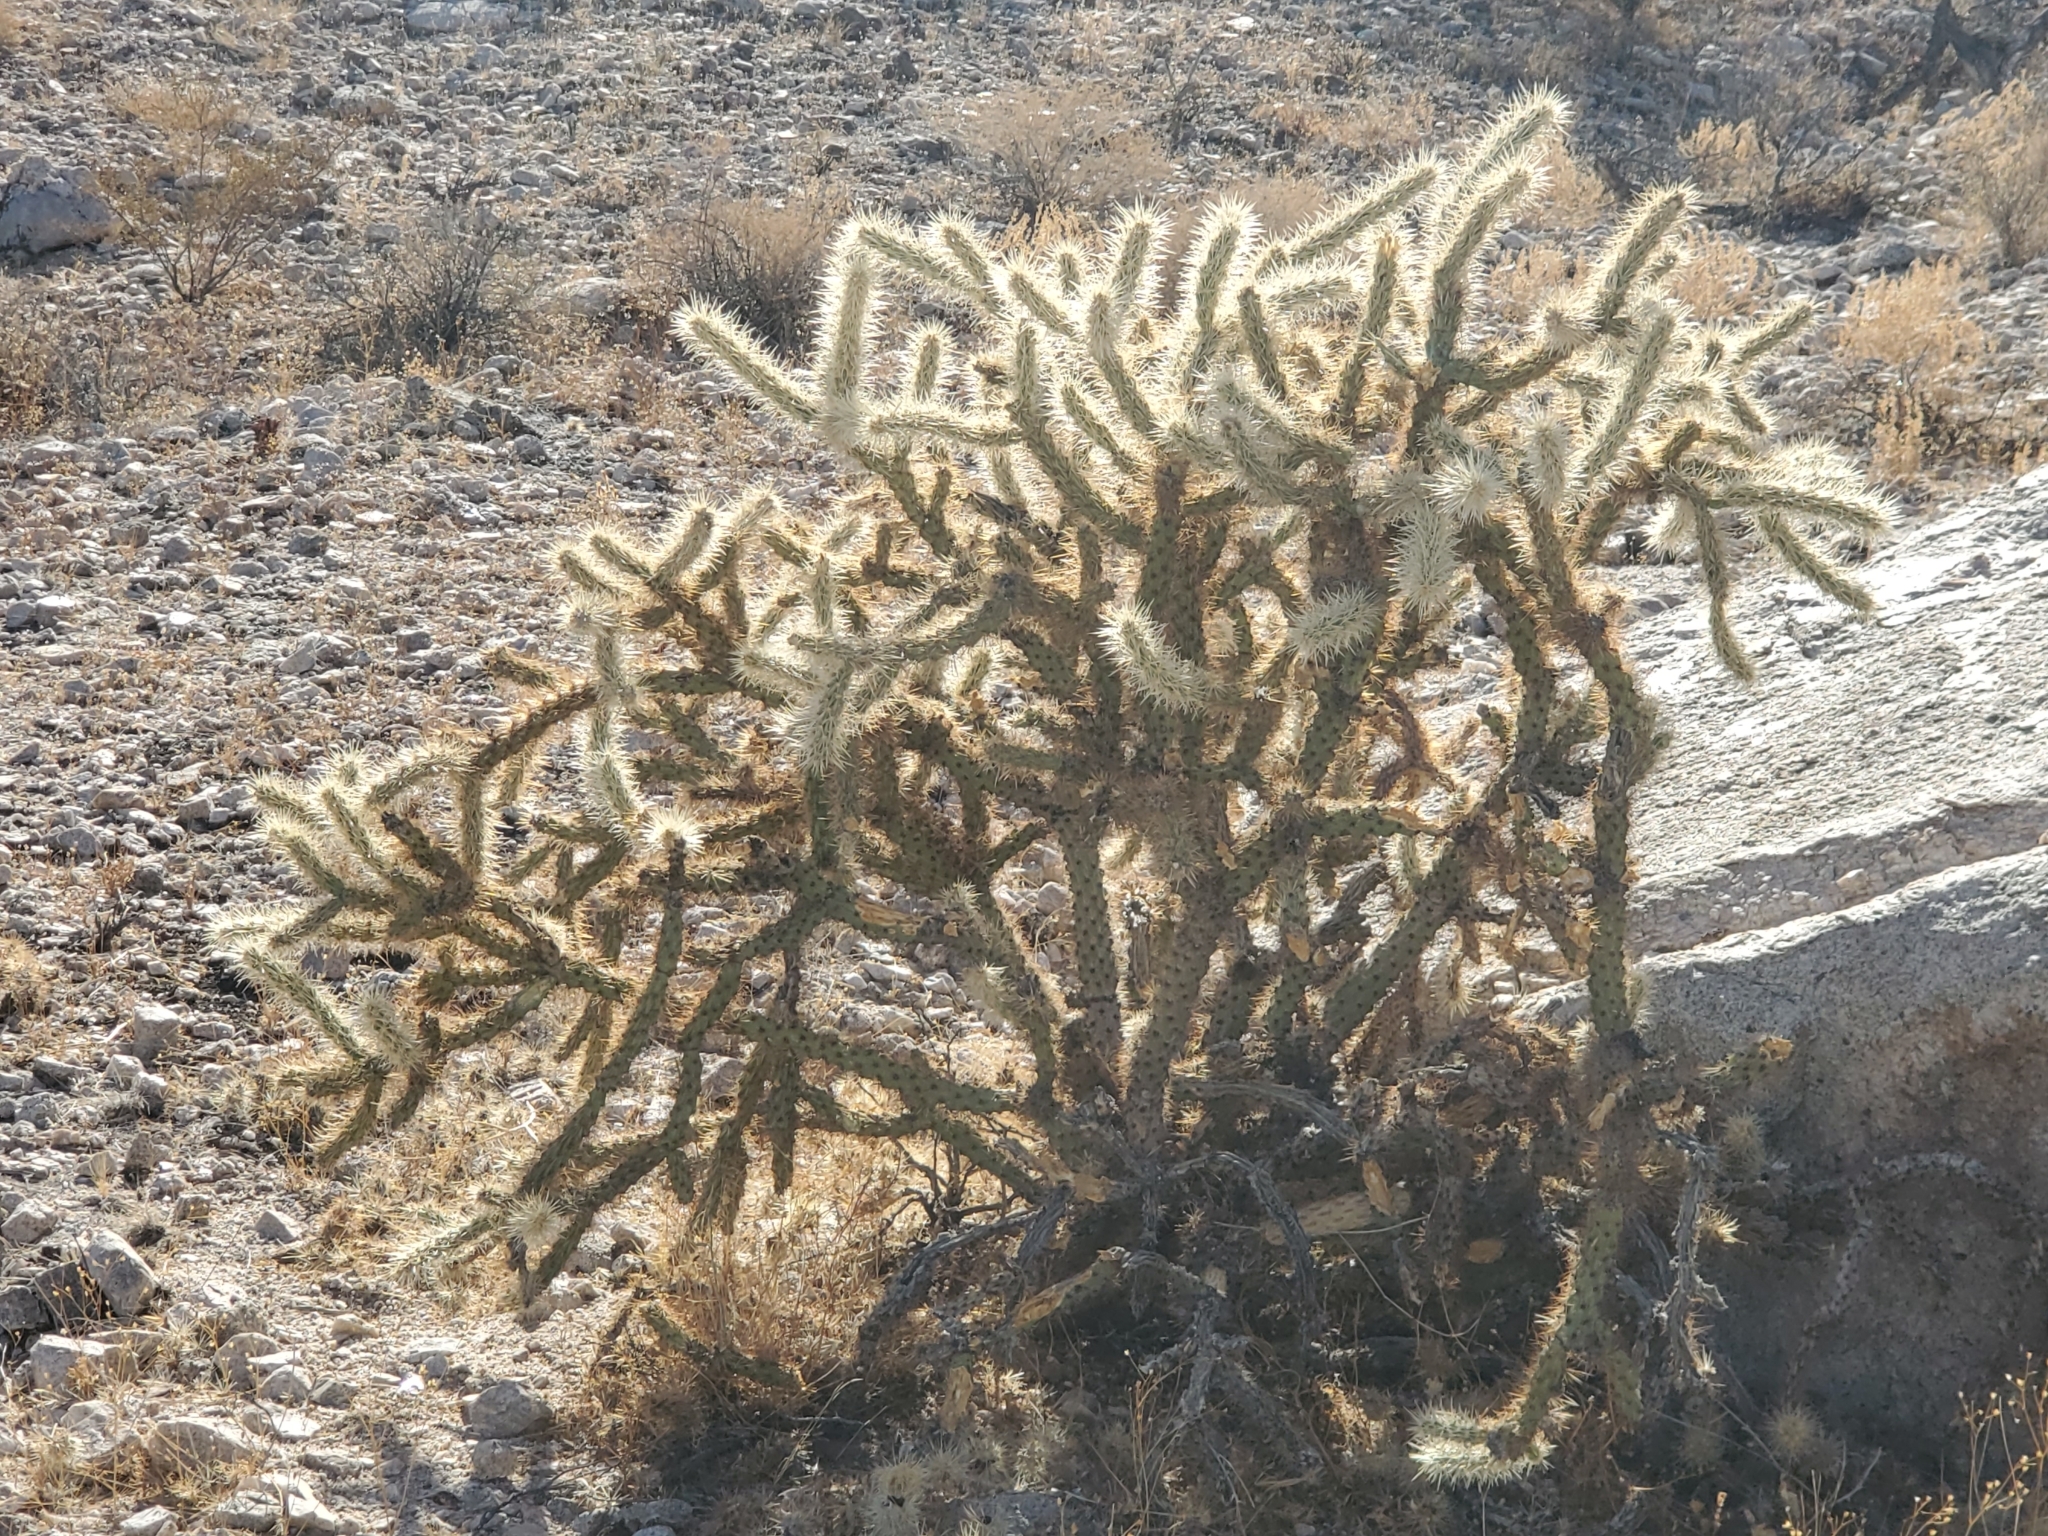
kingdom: Plantae
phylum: Tracheophyta
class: Magnoliopsida
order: Caryophyllales
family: Cactaceae
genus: Cylindropuntia
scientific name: Cylindropuntia acanthocarpa
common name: Buckhorn cholla
